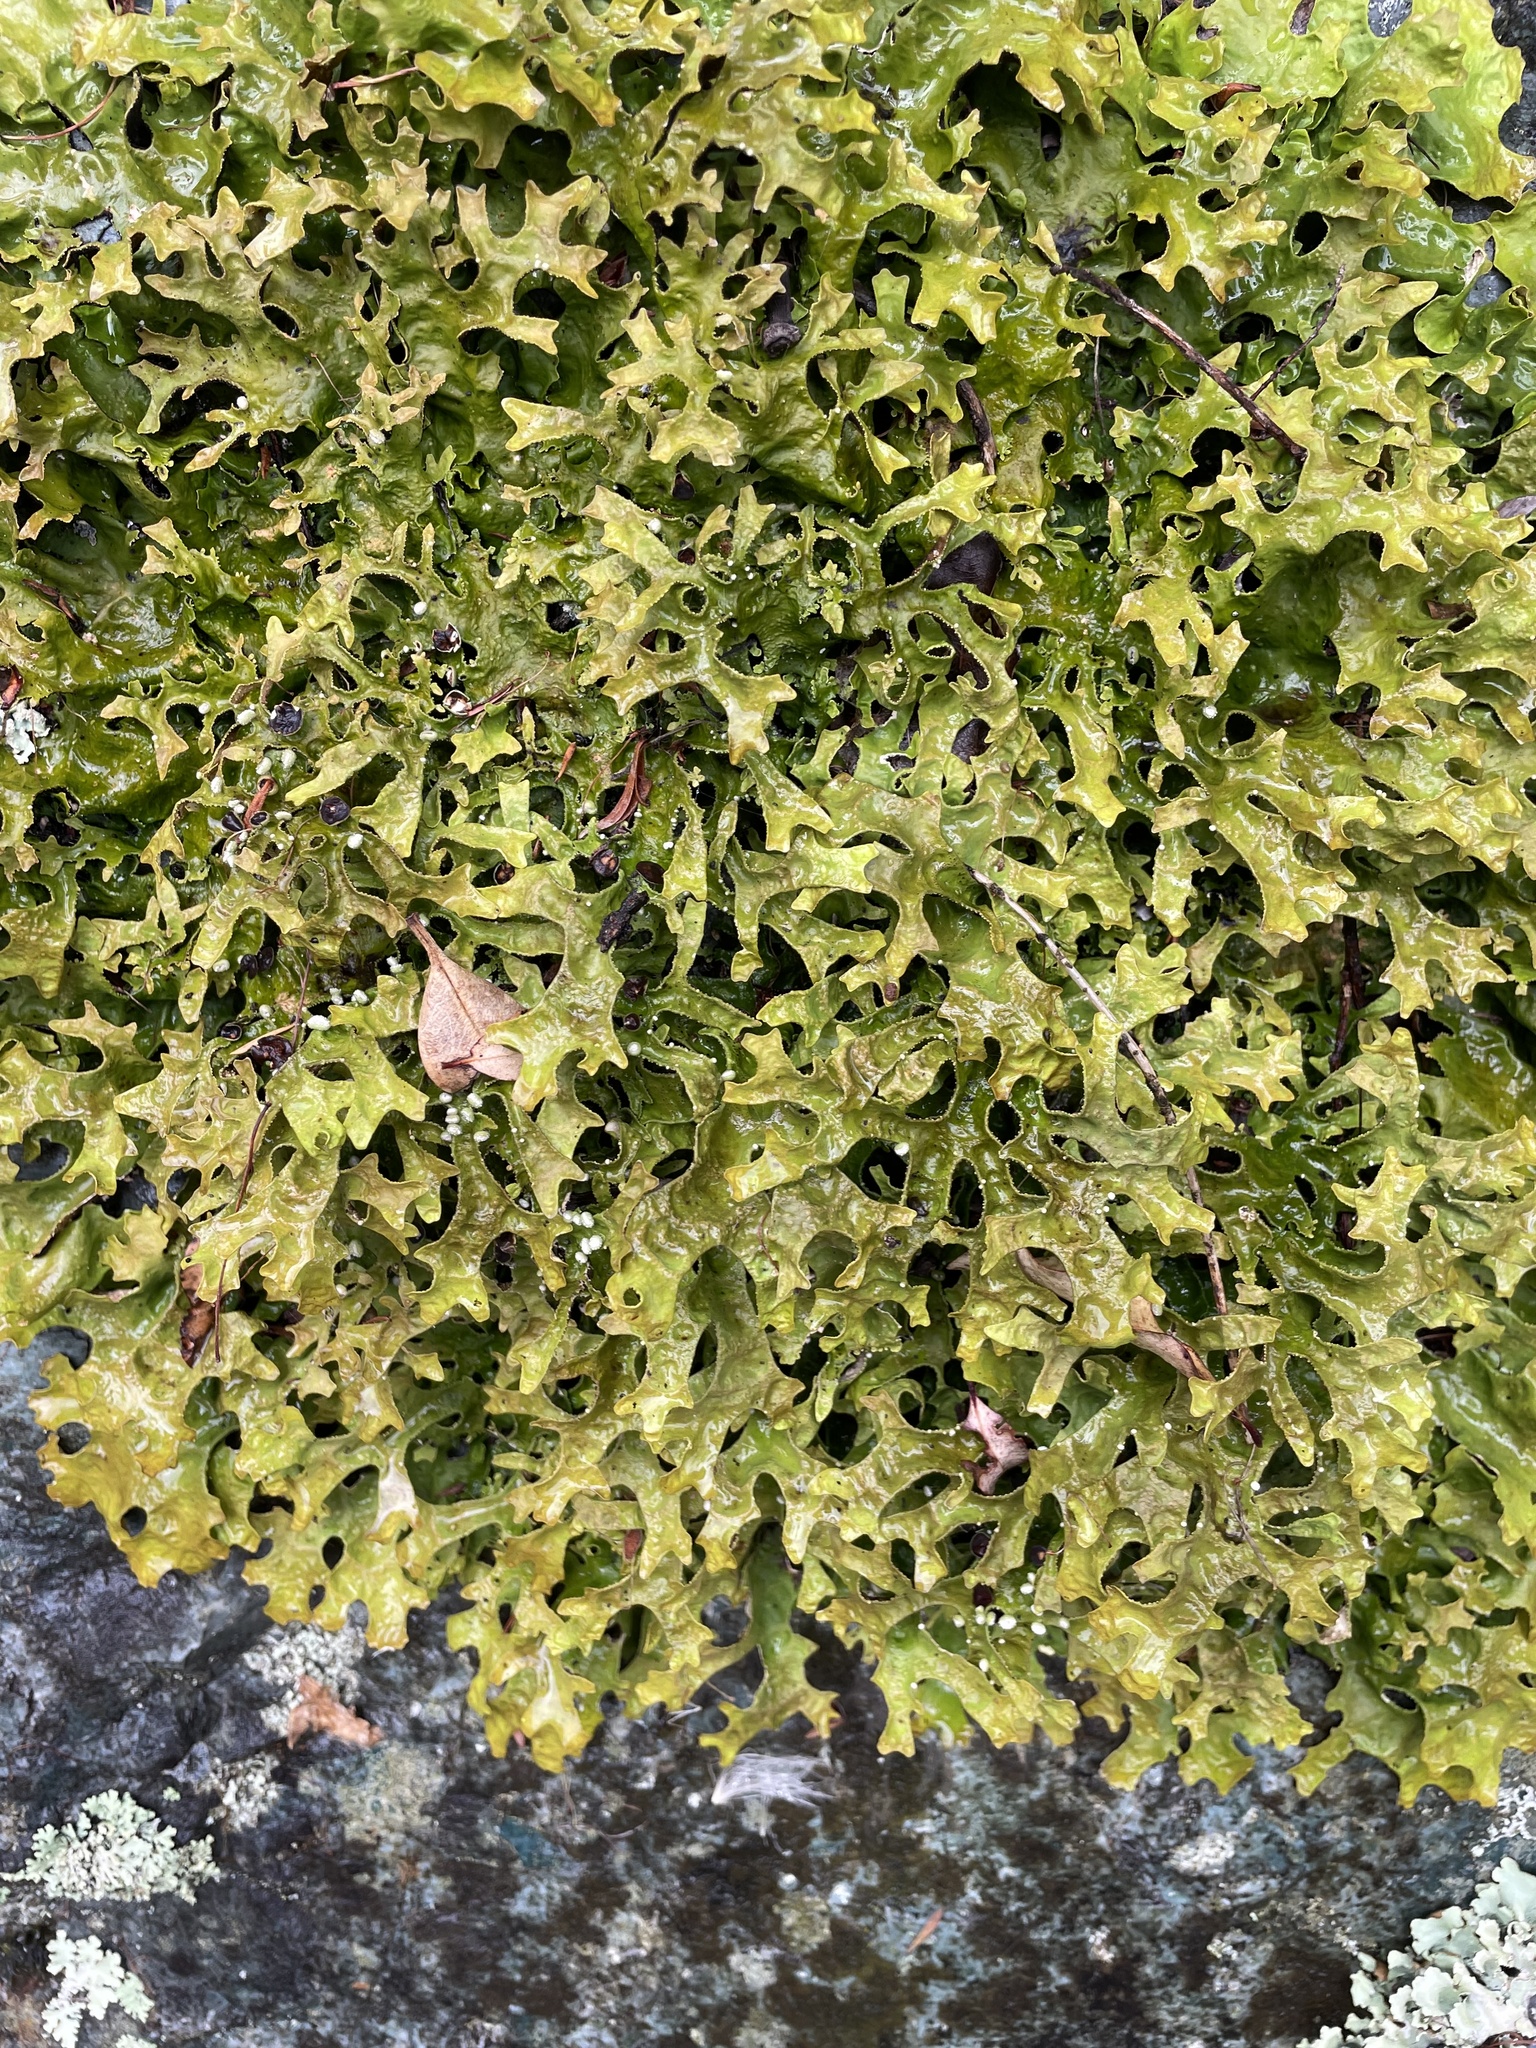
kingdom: Fungi
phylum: Ascomycota
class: Lecanoromycetes
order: Peltigerales
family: Lobariaceae
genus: Pseudocyphellaria
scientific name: Pseudocyphellaria carpoloma
